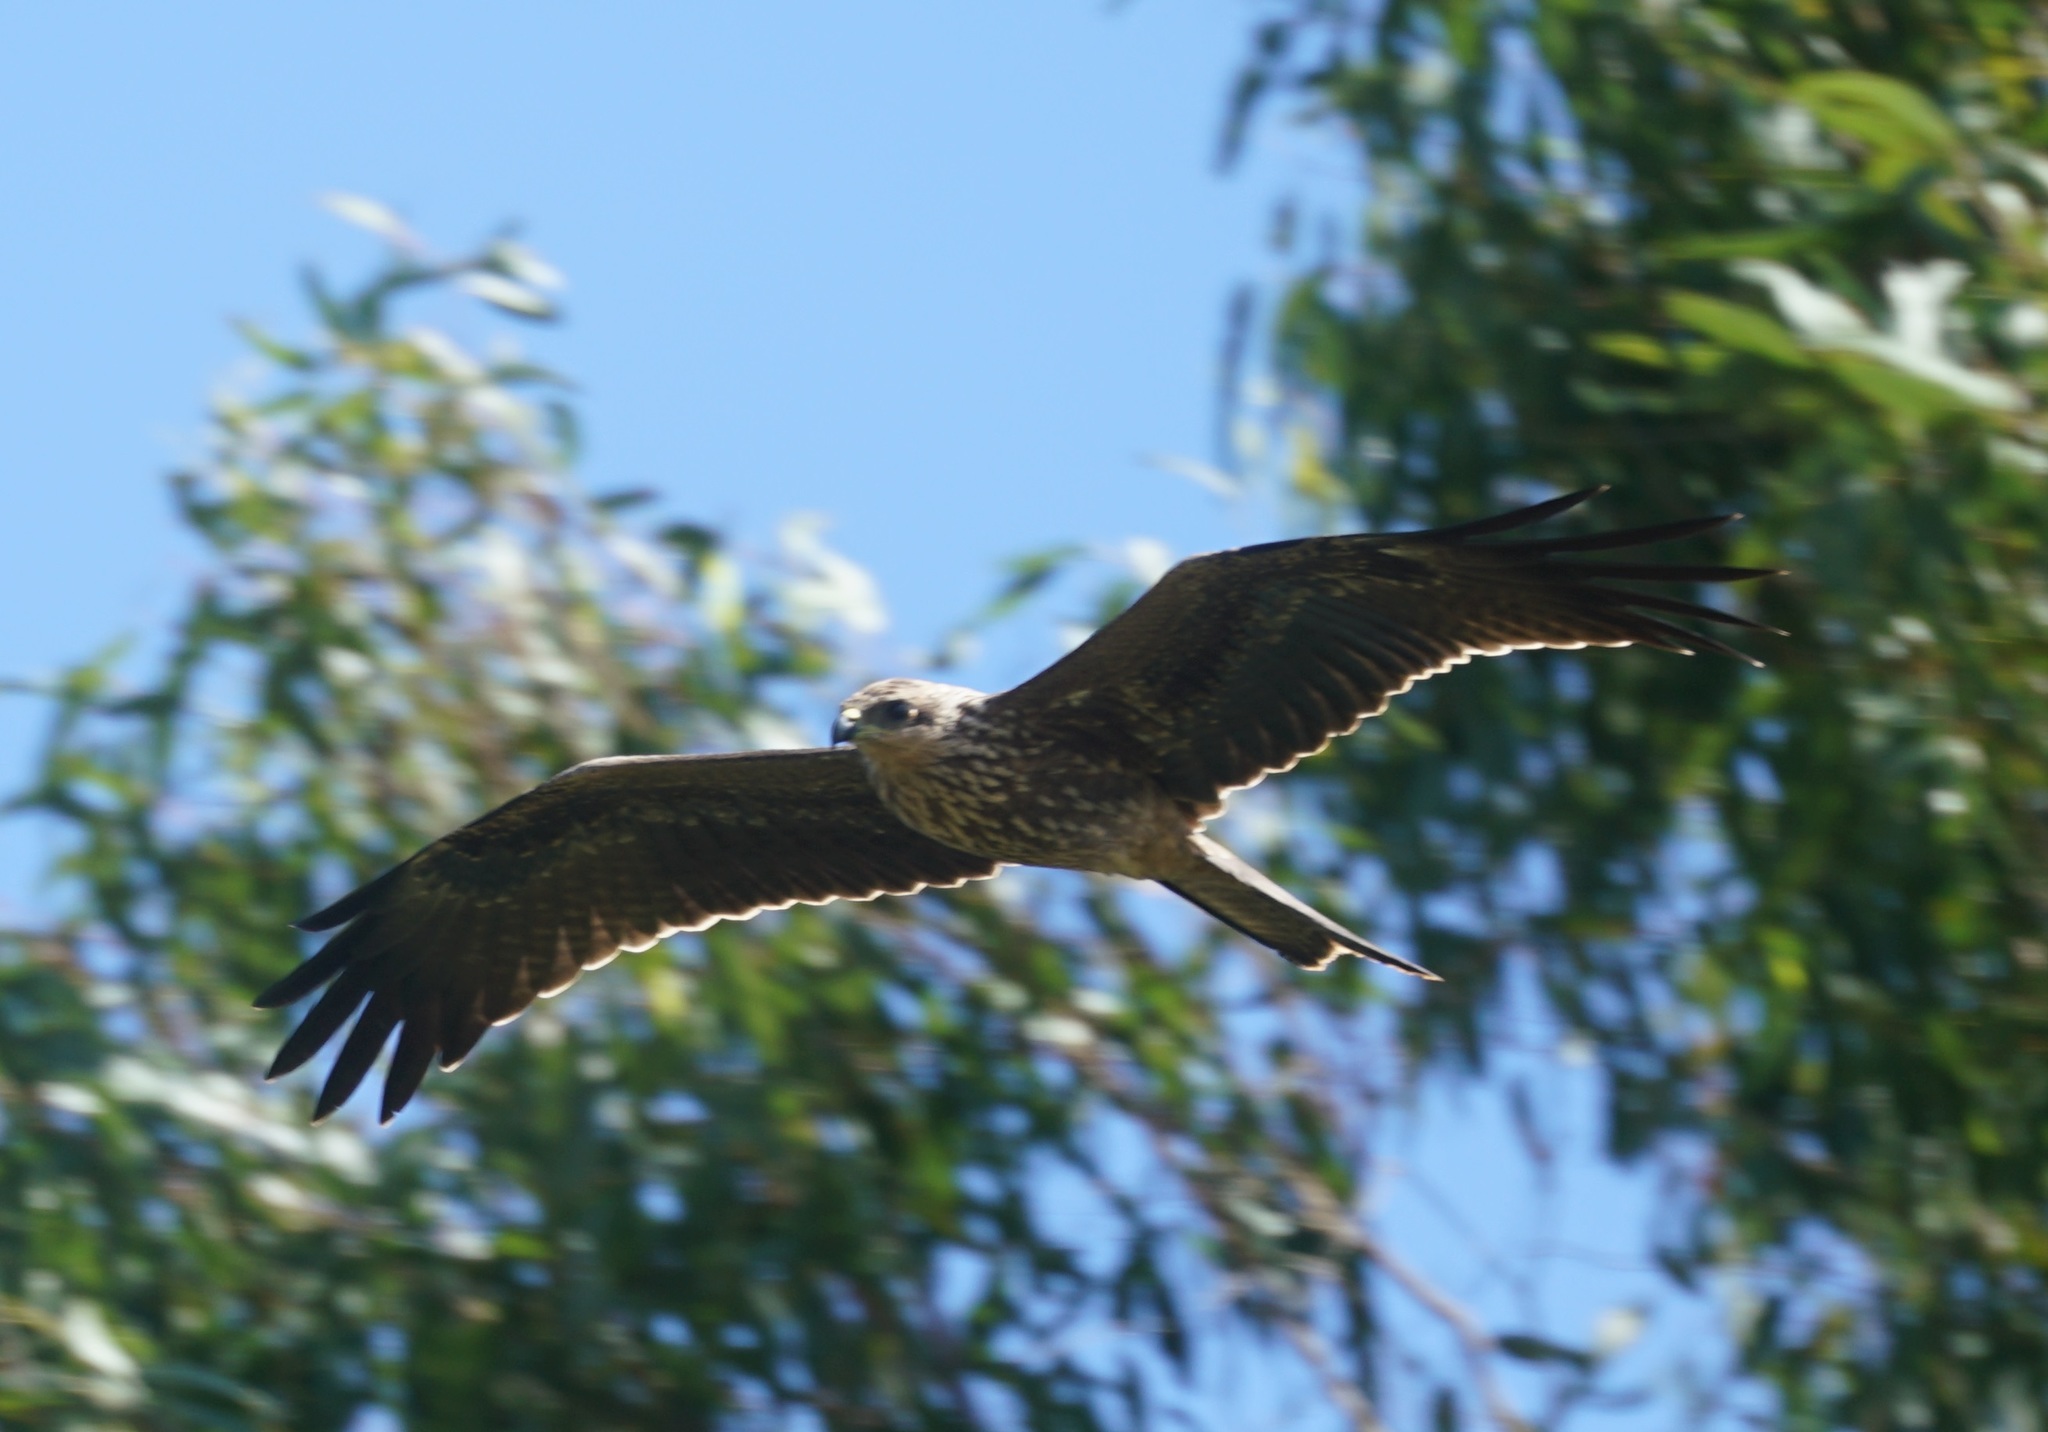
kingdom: Animalia
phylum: Chordata
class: Aves
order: Accipitriformes
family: Accipitridae
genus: Milvus
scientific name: Milvus migrans
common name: Black kite
